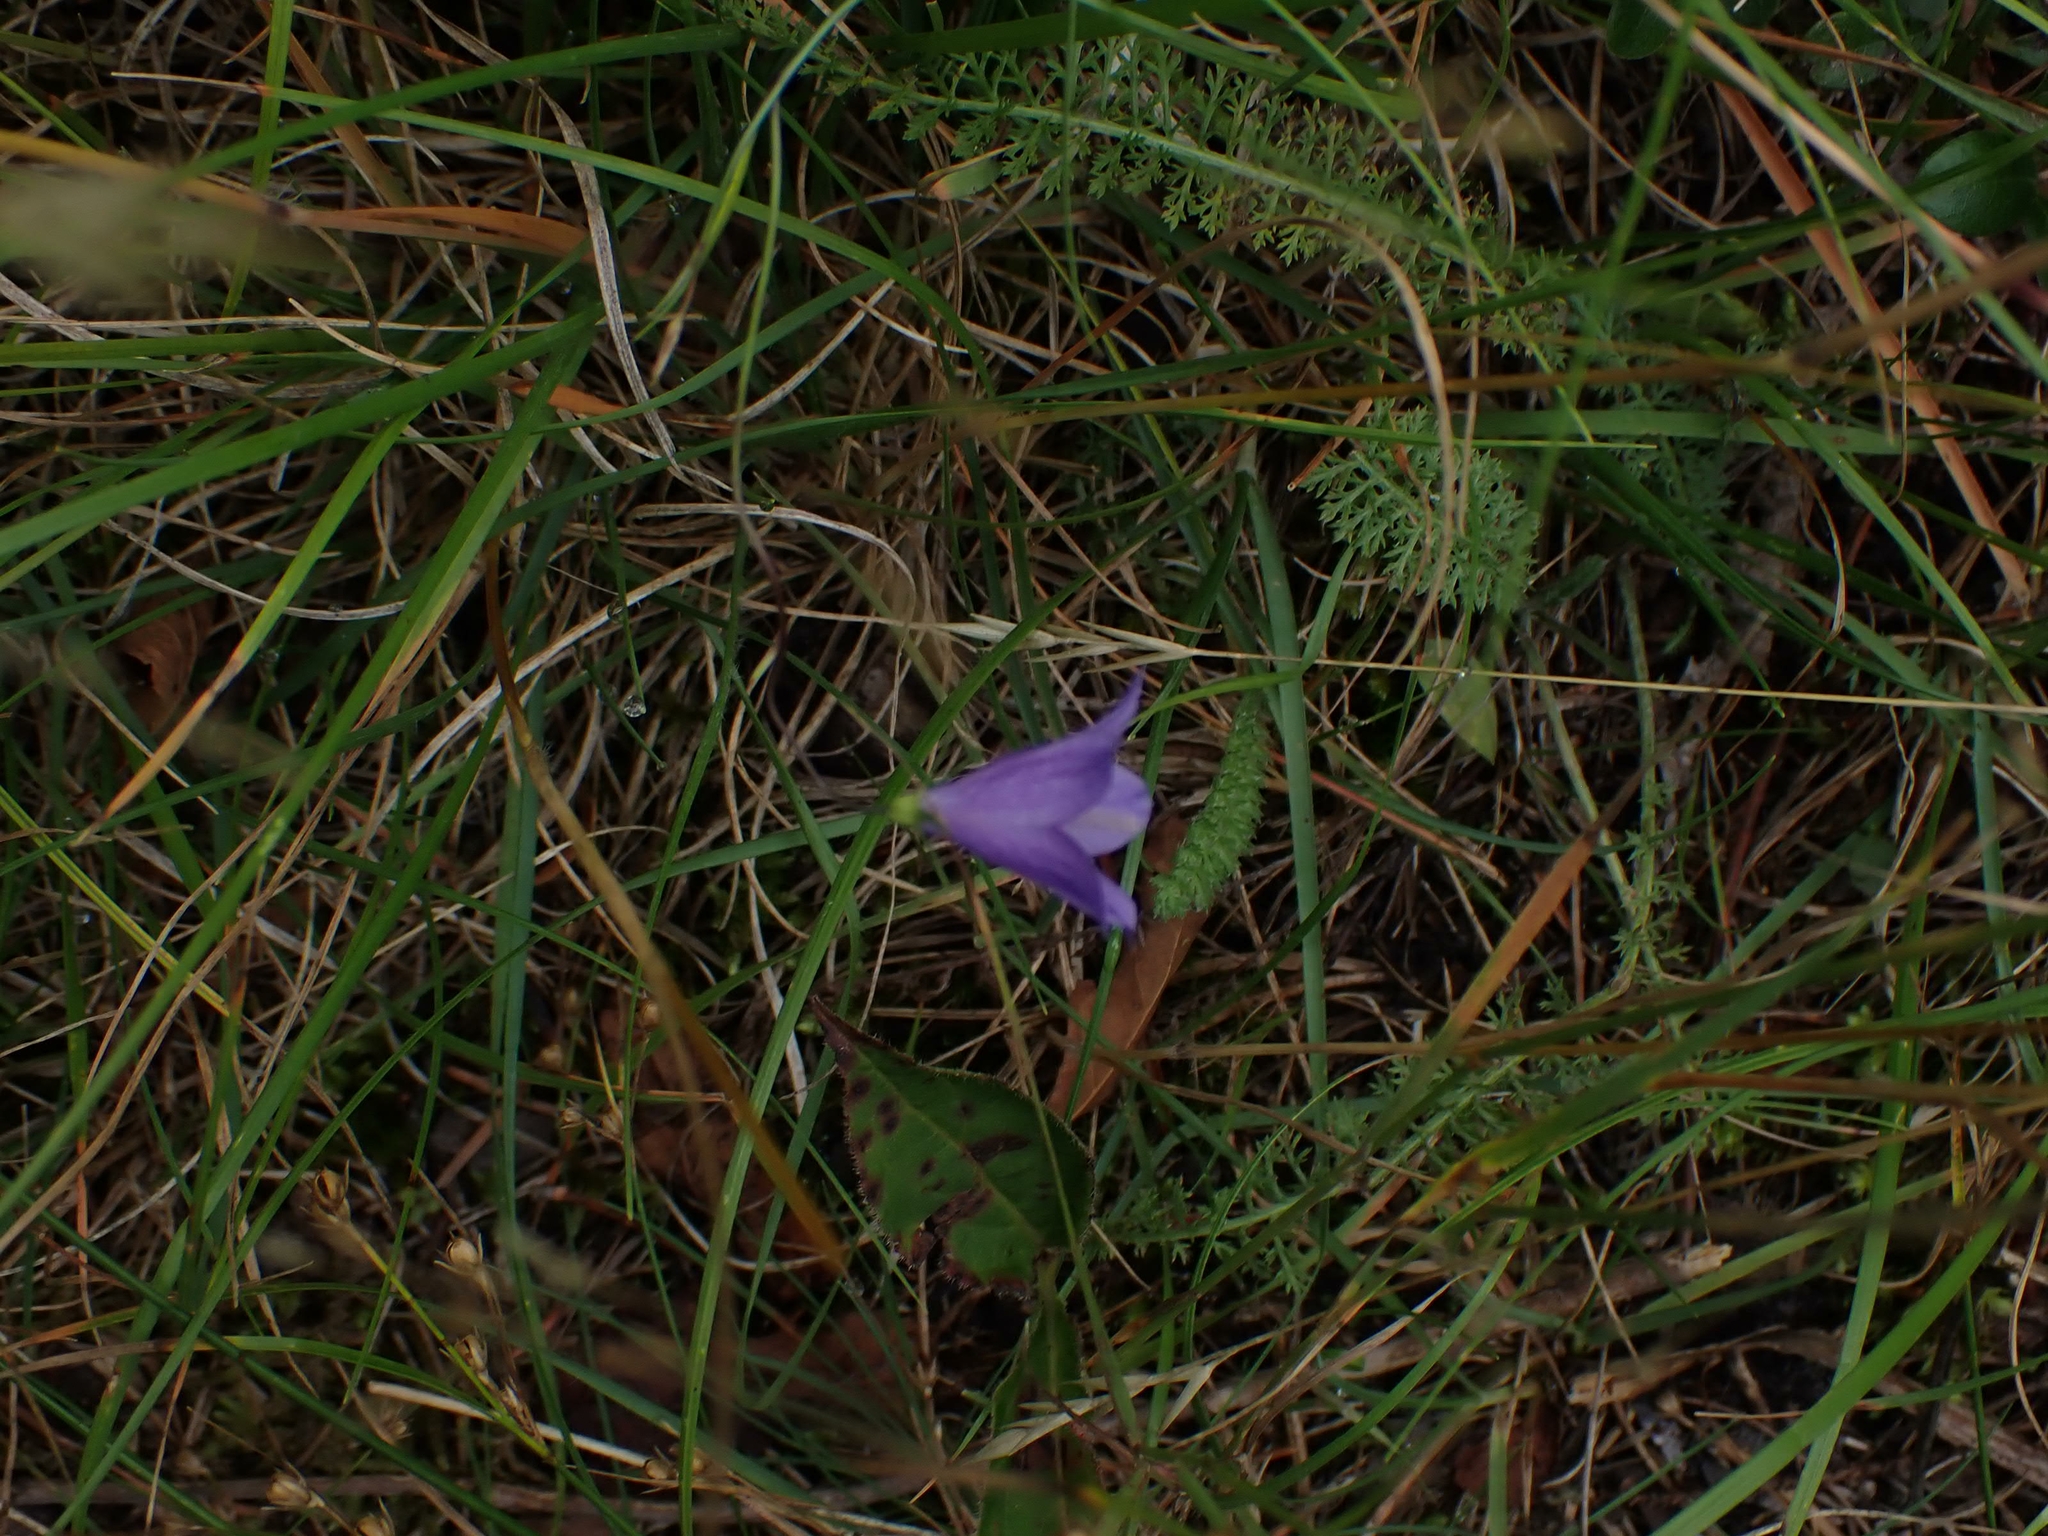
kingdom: Plantae
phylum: Tracheophyta
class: Magnoliopsida
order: Asterales
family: Campanulaceae
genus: Campanula
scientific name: Campanula petiolata
